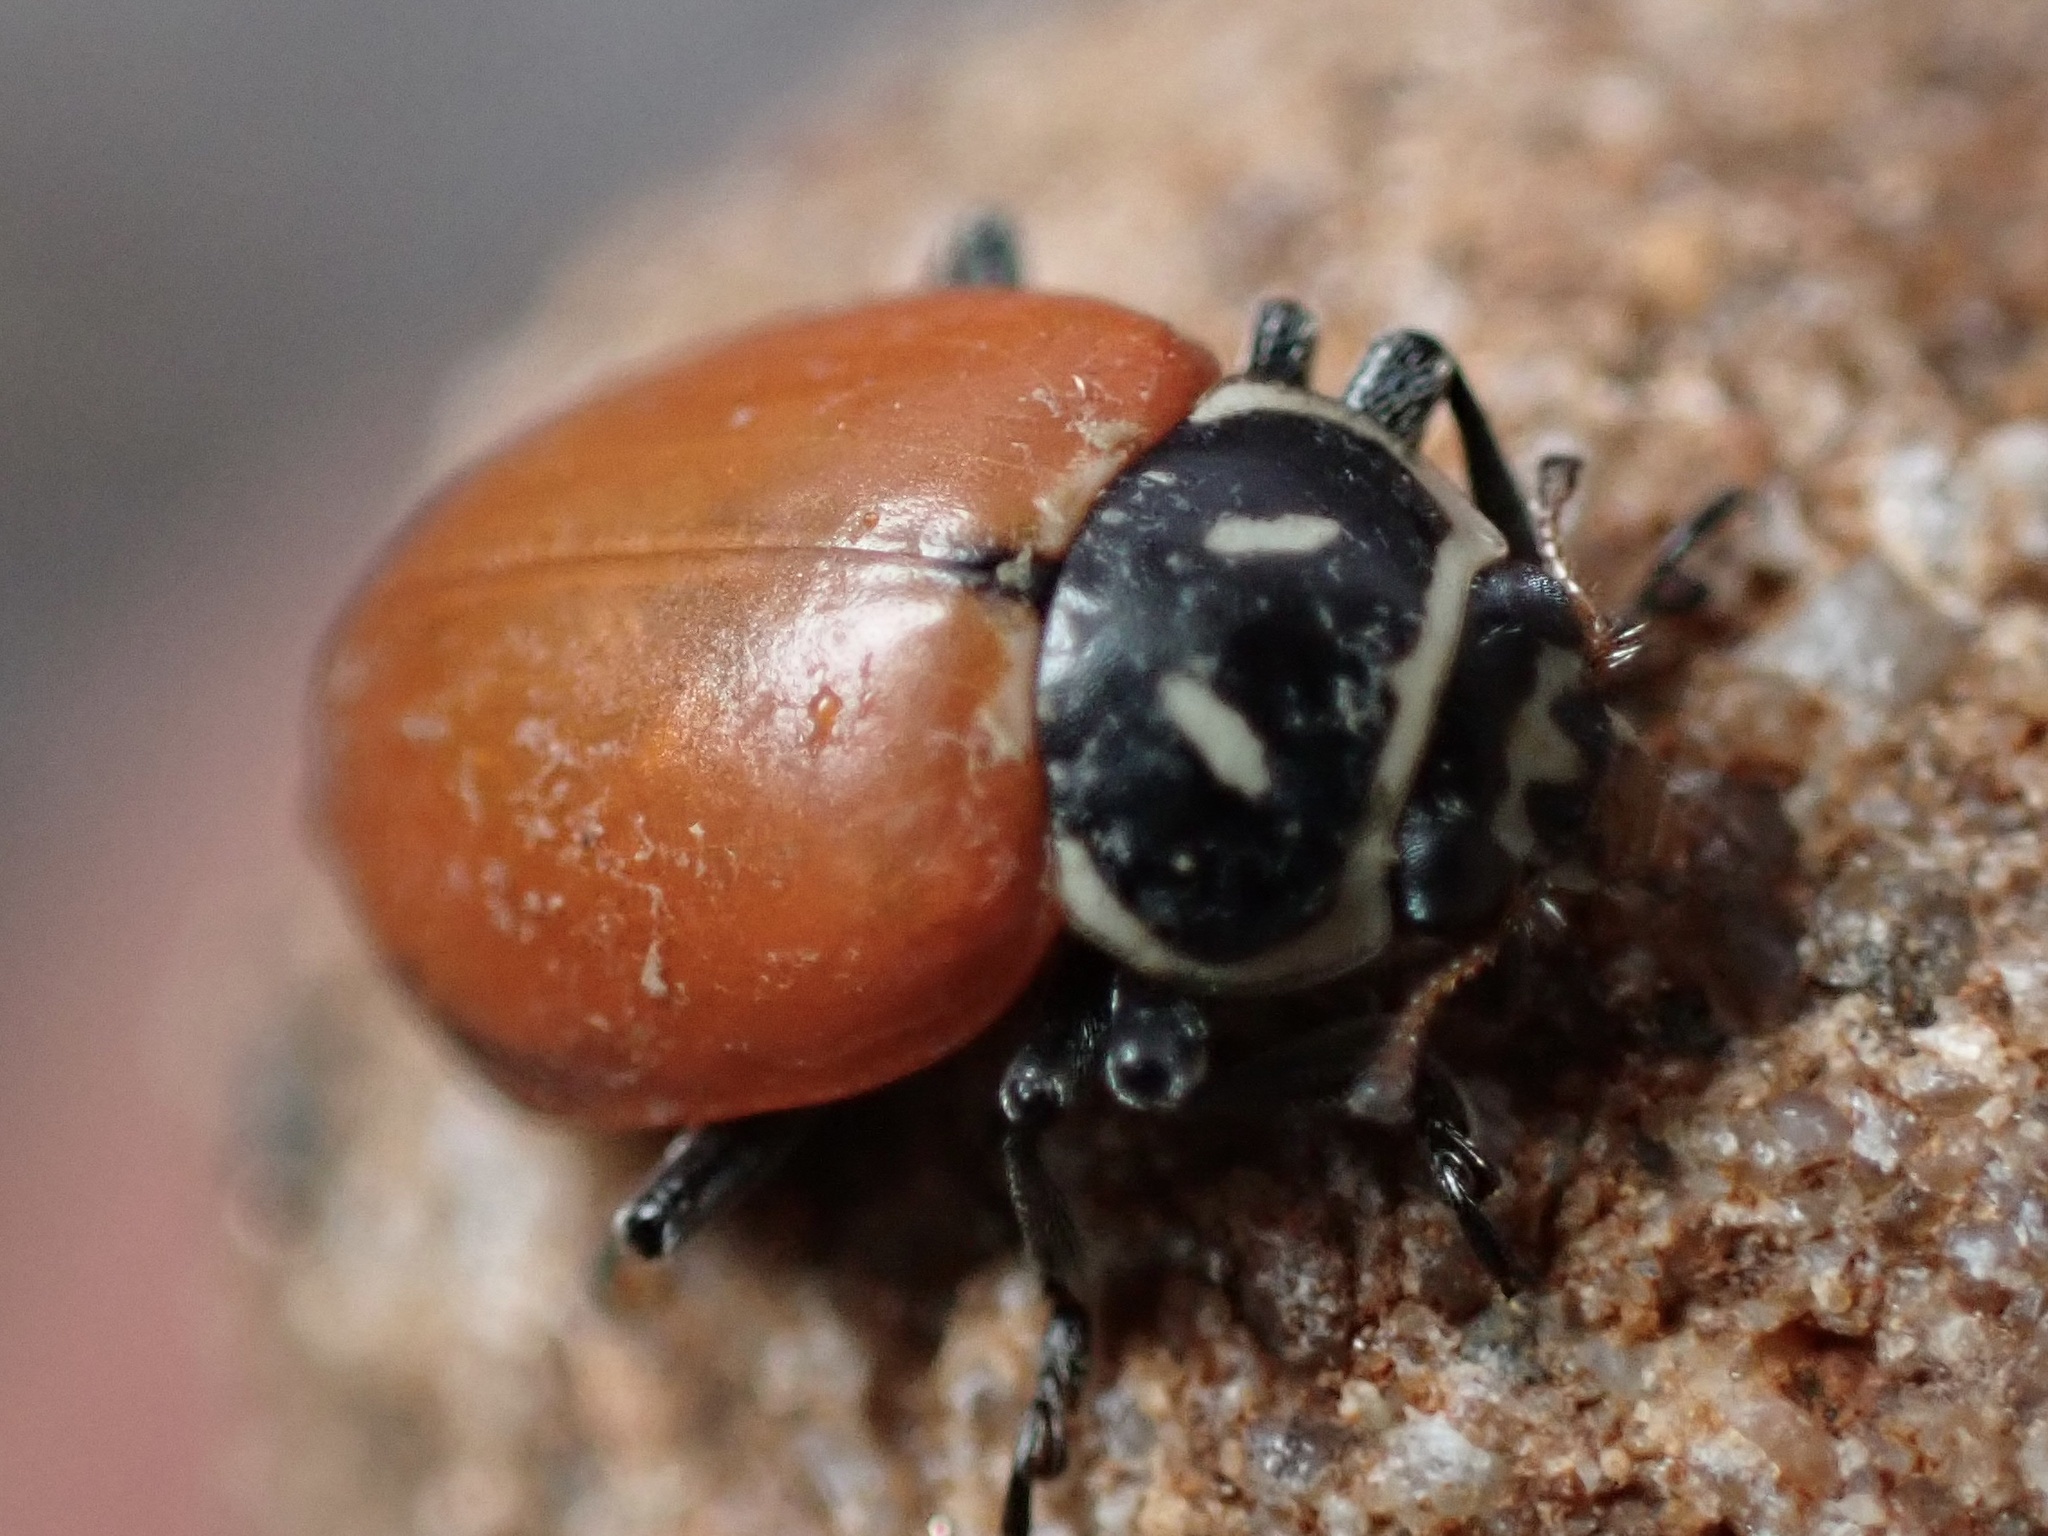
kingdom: Animalia
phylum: Arthropoda
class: Insecta
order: Coleoptera
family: Coccinellidae
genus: Hippodamia
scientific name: Hippodamia convergens
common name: Convergent lady beetle
